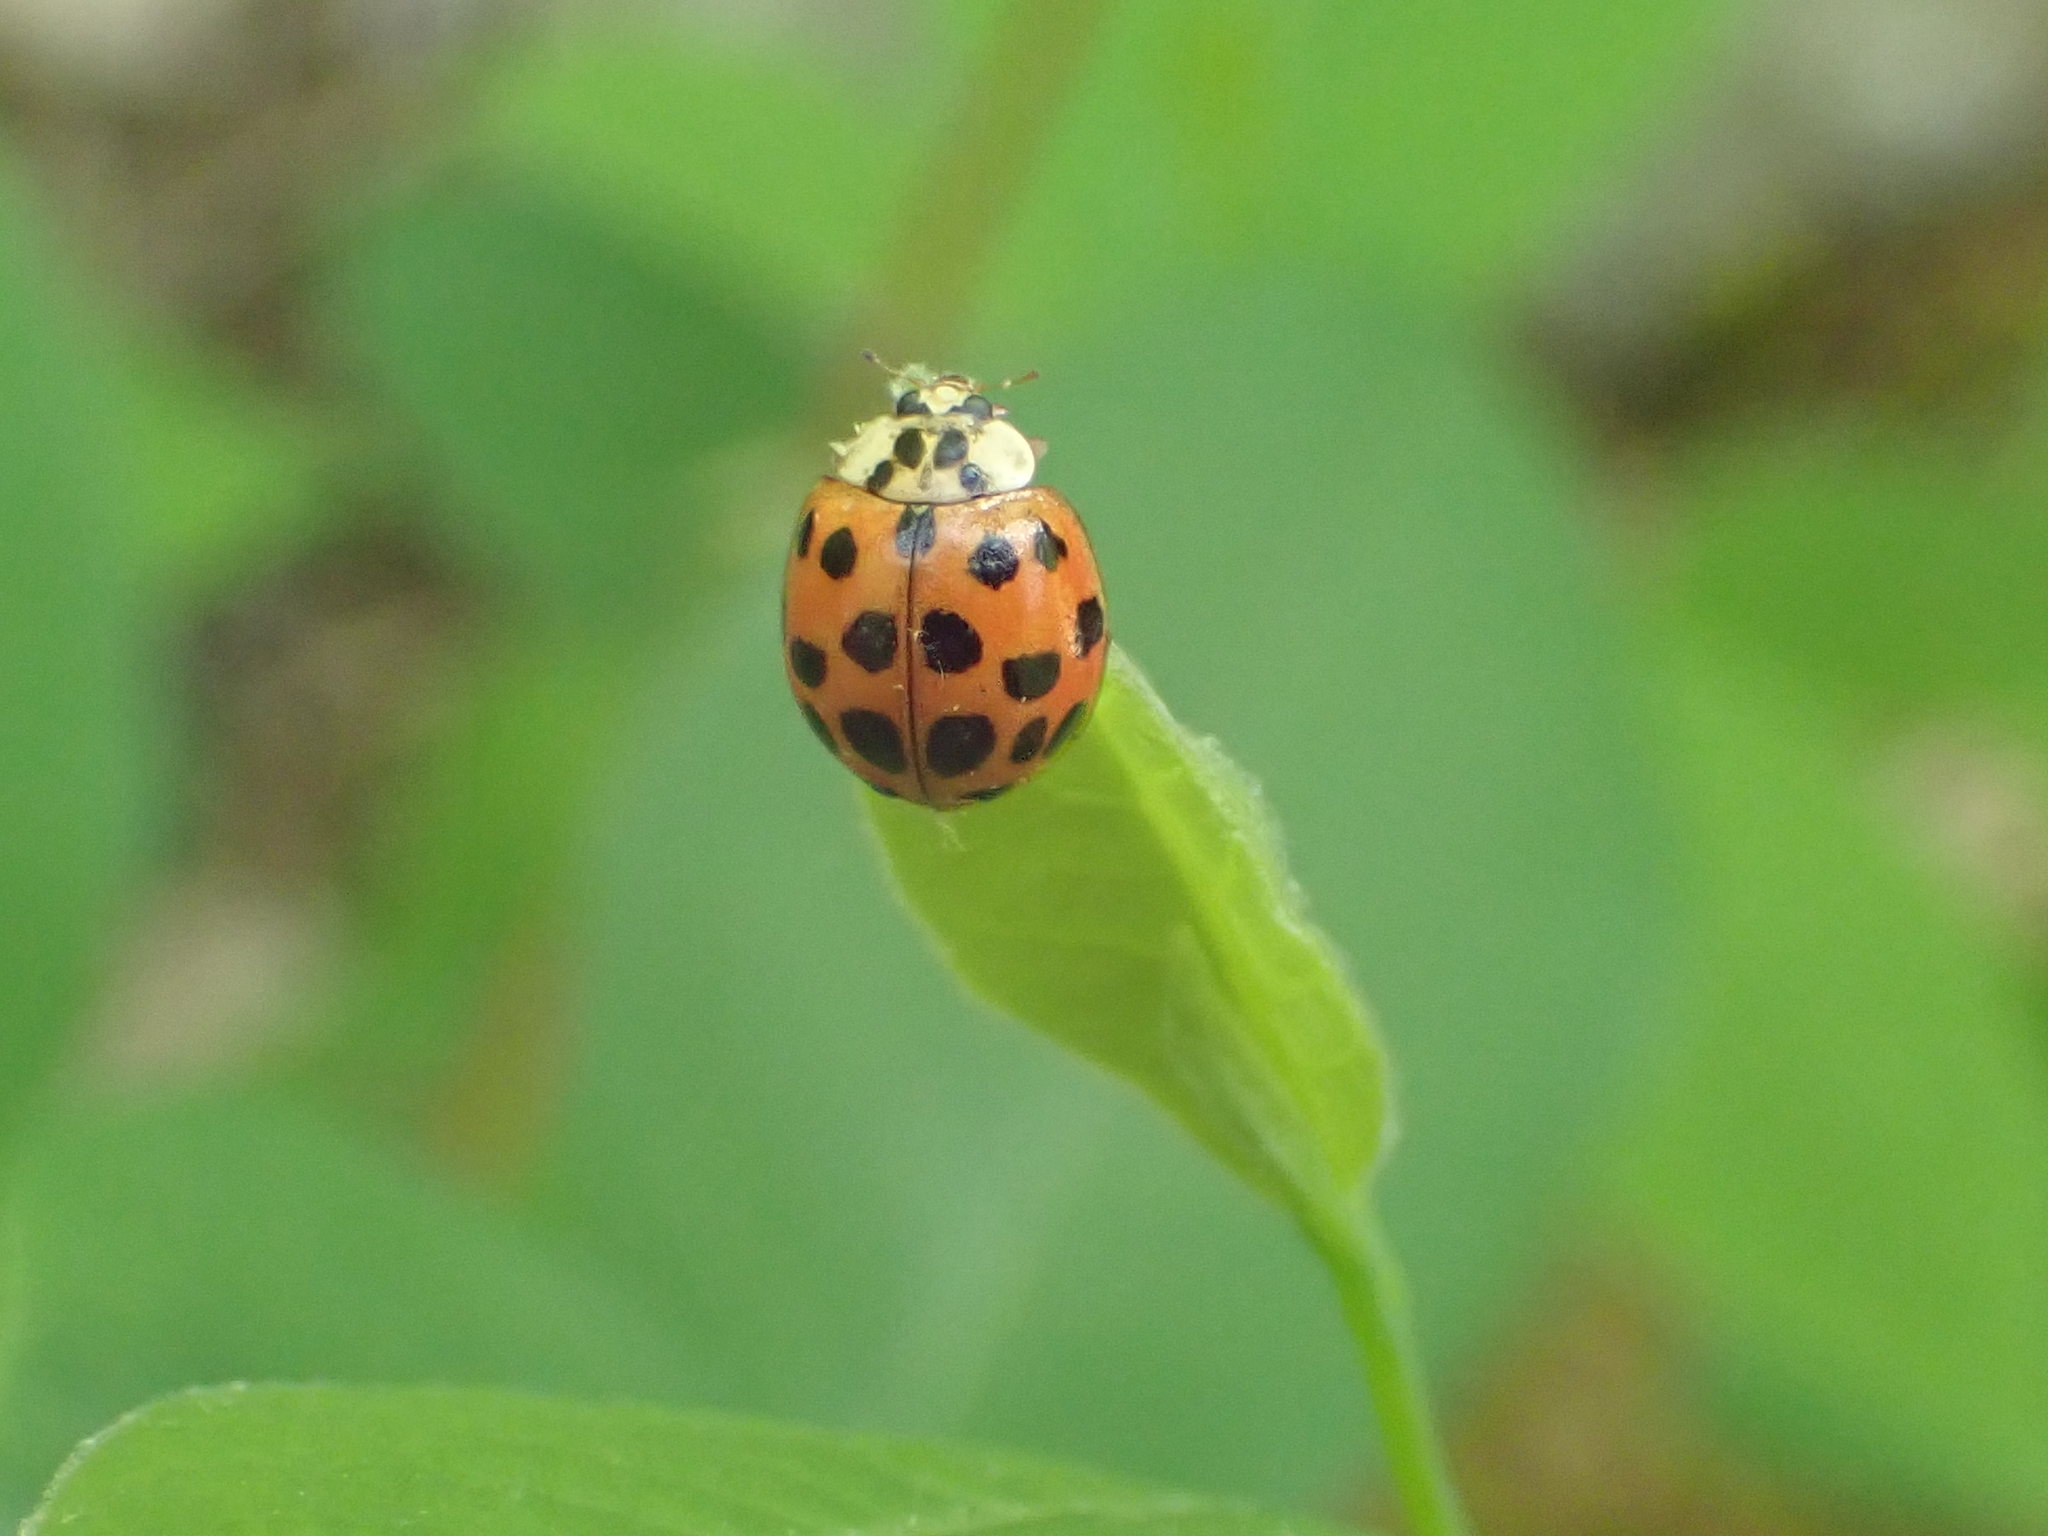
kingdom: Animalia
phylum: Arthropoda
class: Insecta
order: Coleoptera
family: Coccinellidae
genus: Harmonia
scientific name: Harmonia axyridis
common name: Harlequin ladybird
